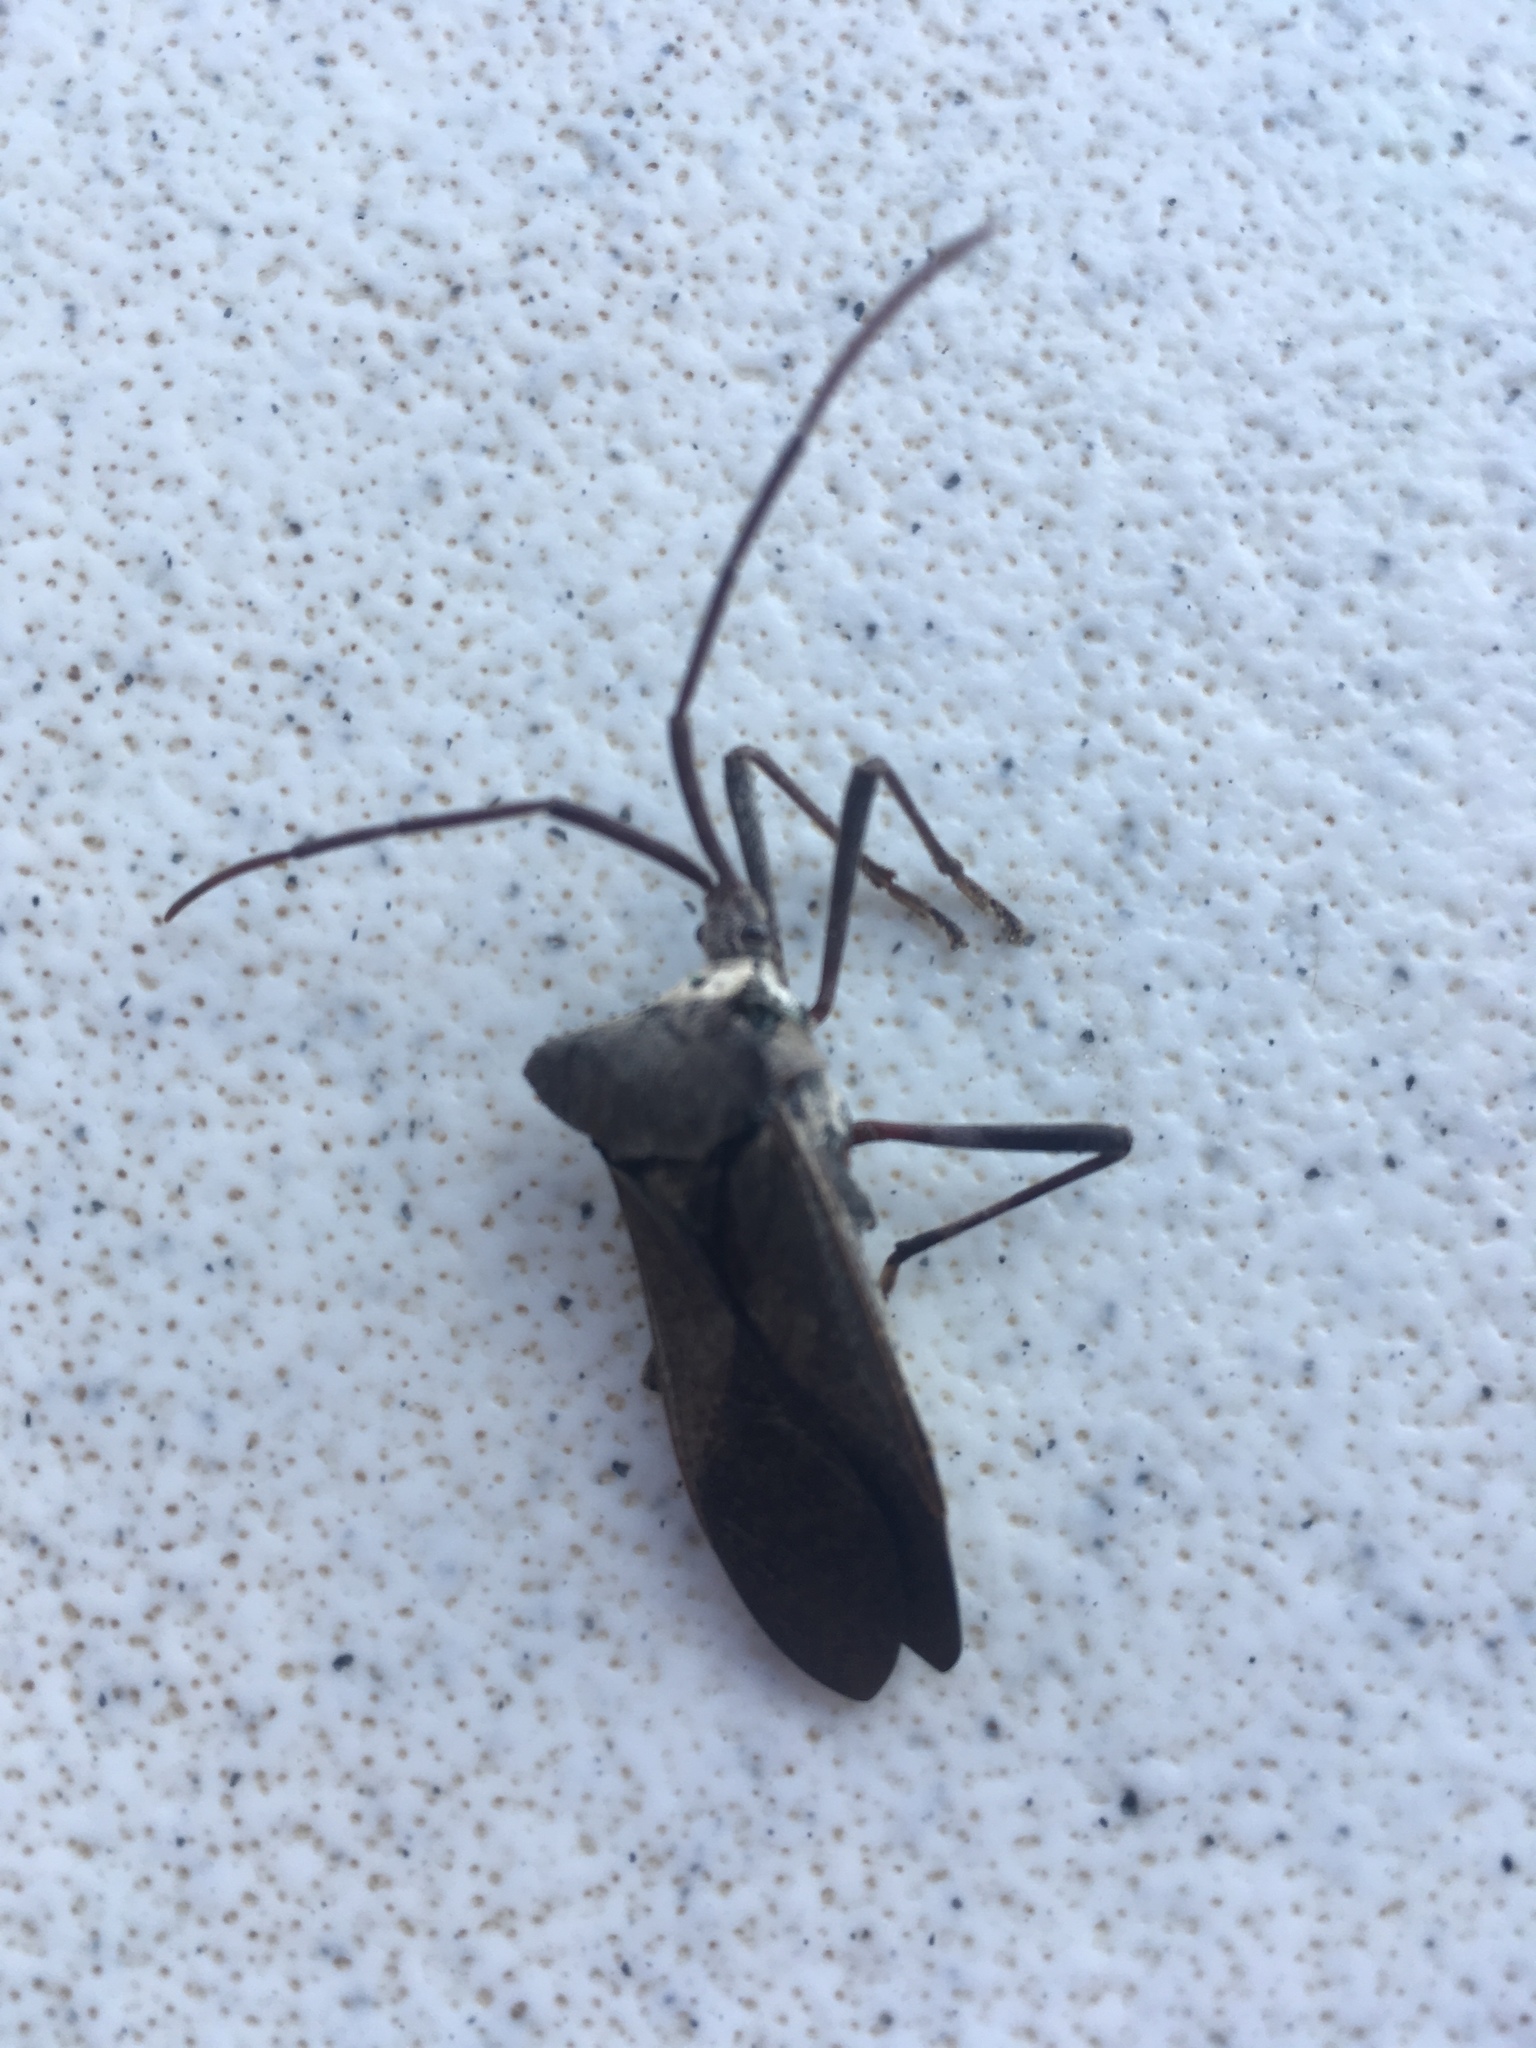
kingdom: Animalia
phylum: Arthropoda
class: Insecta
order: Hemiptera
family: Coreidae
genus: Acanthocephala
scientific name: Acanthocephala declivis
